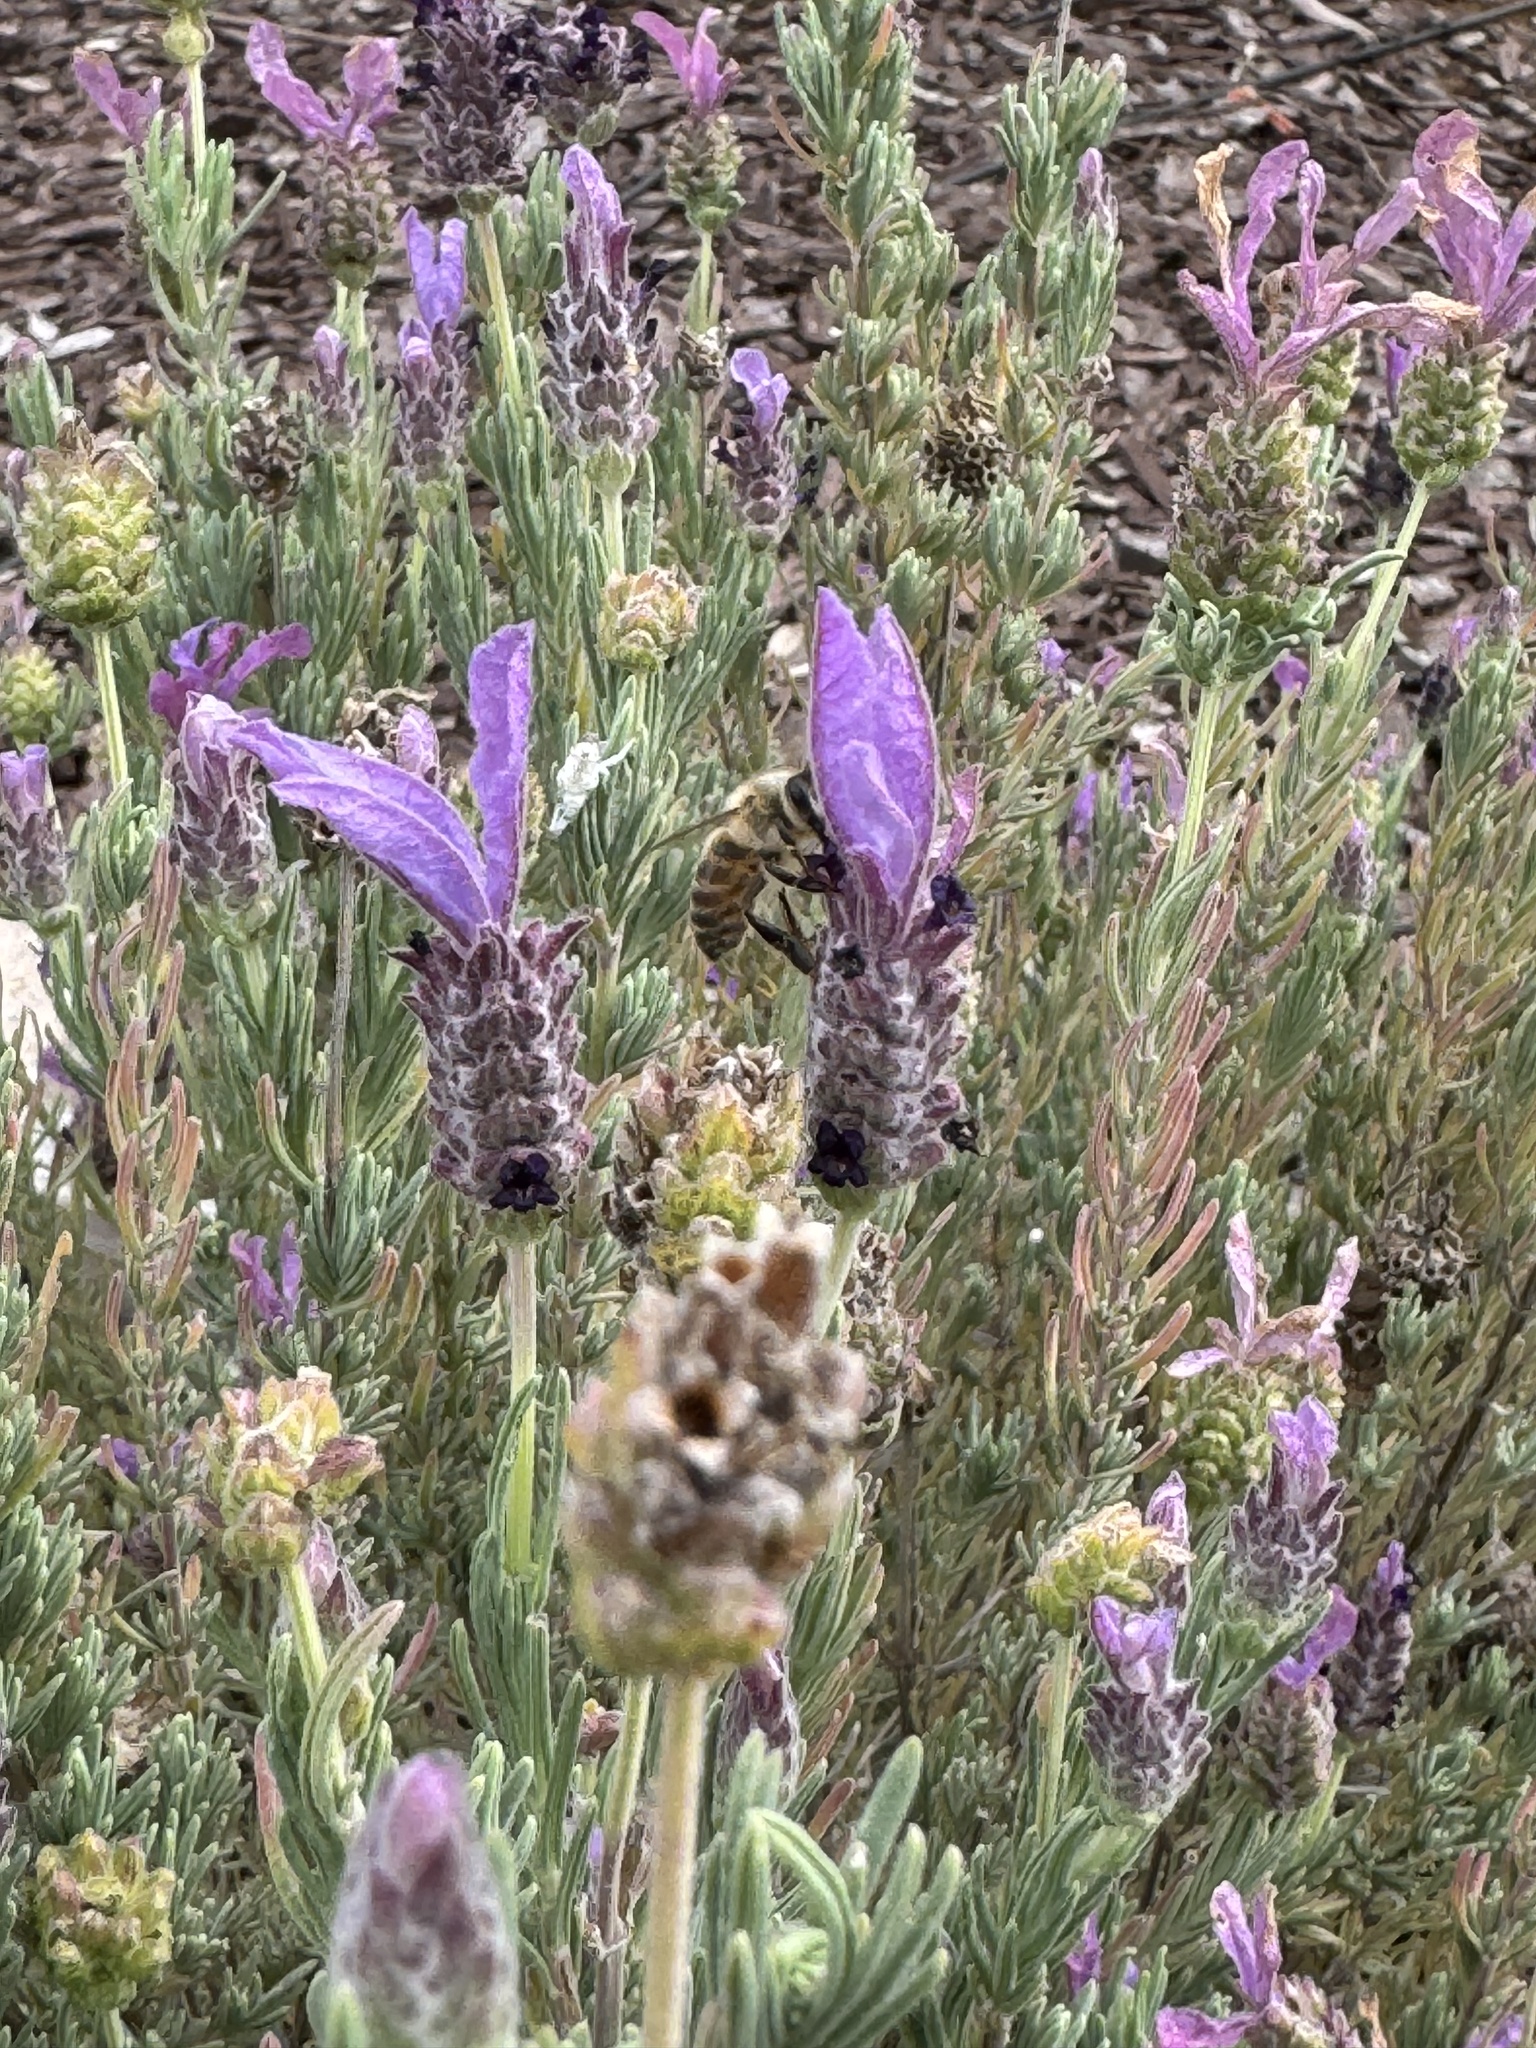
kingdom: Animalia
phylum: Arthropoda
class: Insecta
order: Hymenoptera
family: Apidae
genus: Apis
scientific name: Apis mellifera
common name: Honey bee
